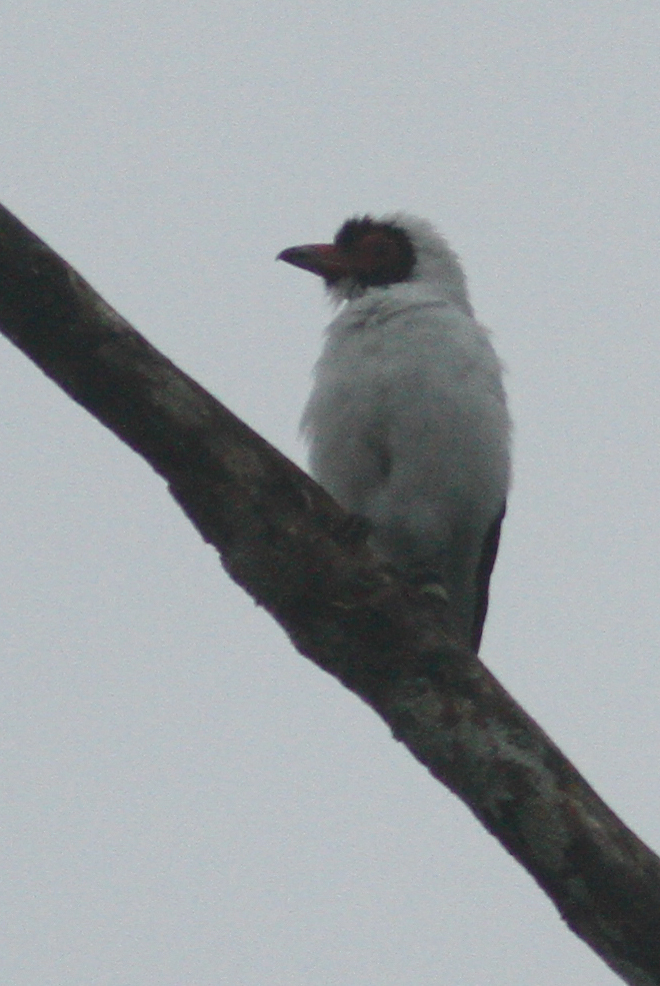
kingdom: Animalia
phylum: Chordata
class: Aves
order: Passeriformes
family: Cotingidae
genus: Tityra
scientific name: Tityra semifasciata
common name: Masked tityra
